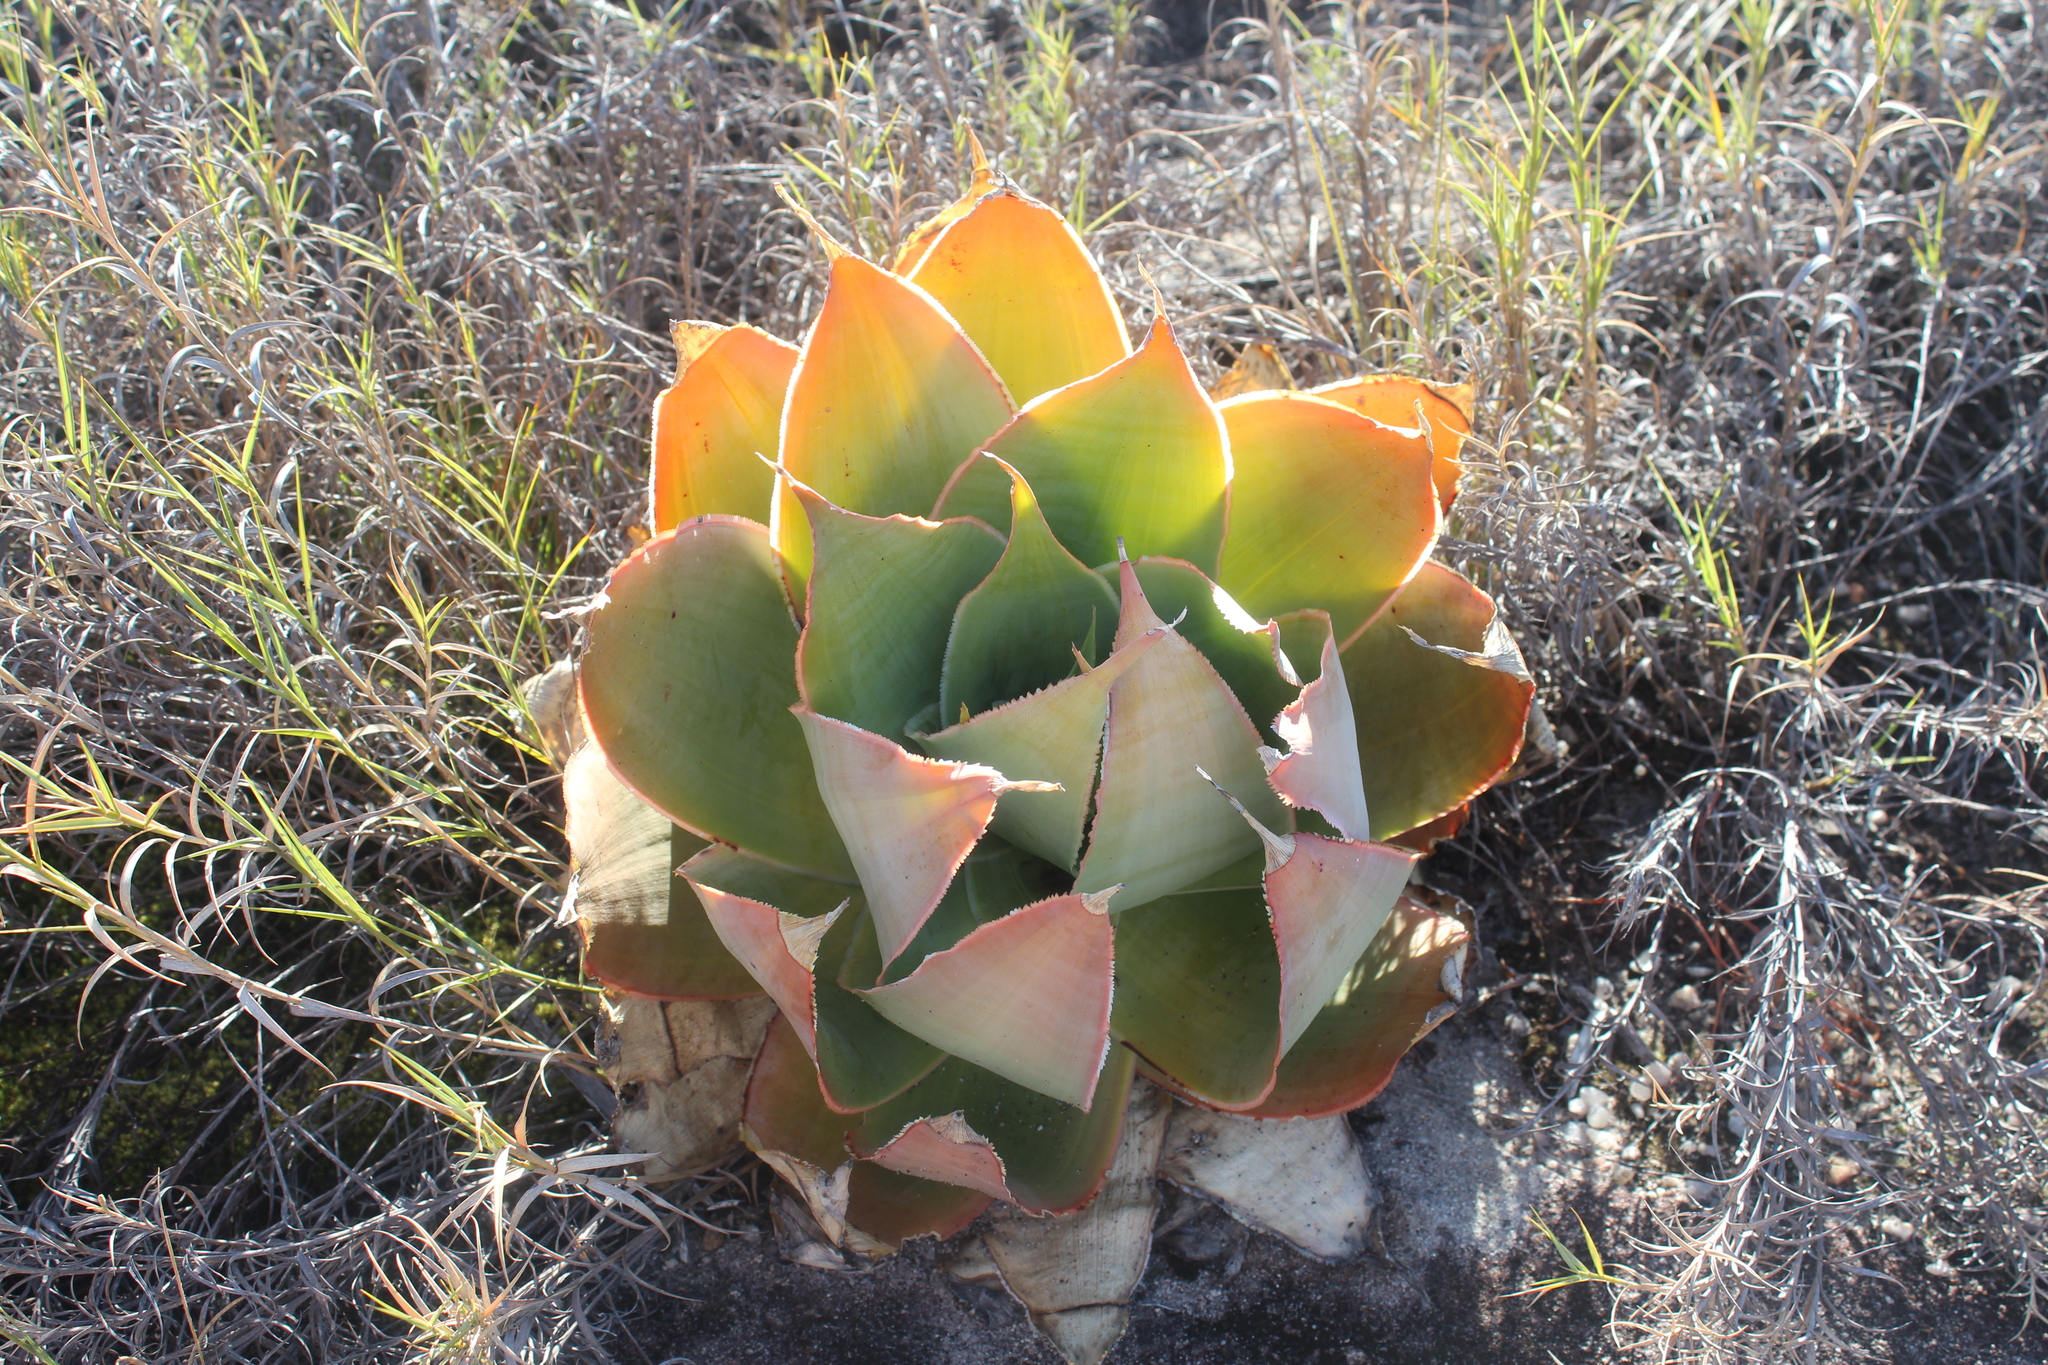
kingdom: Plantae
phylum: Tracheophyta
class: Liliopsida
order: Asparagales
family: Asphodelaceae
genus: Aloe
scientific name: Aloe imalotensis
